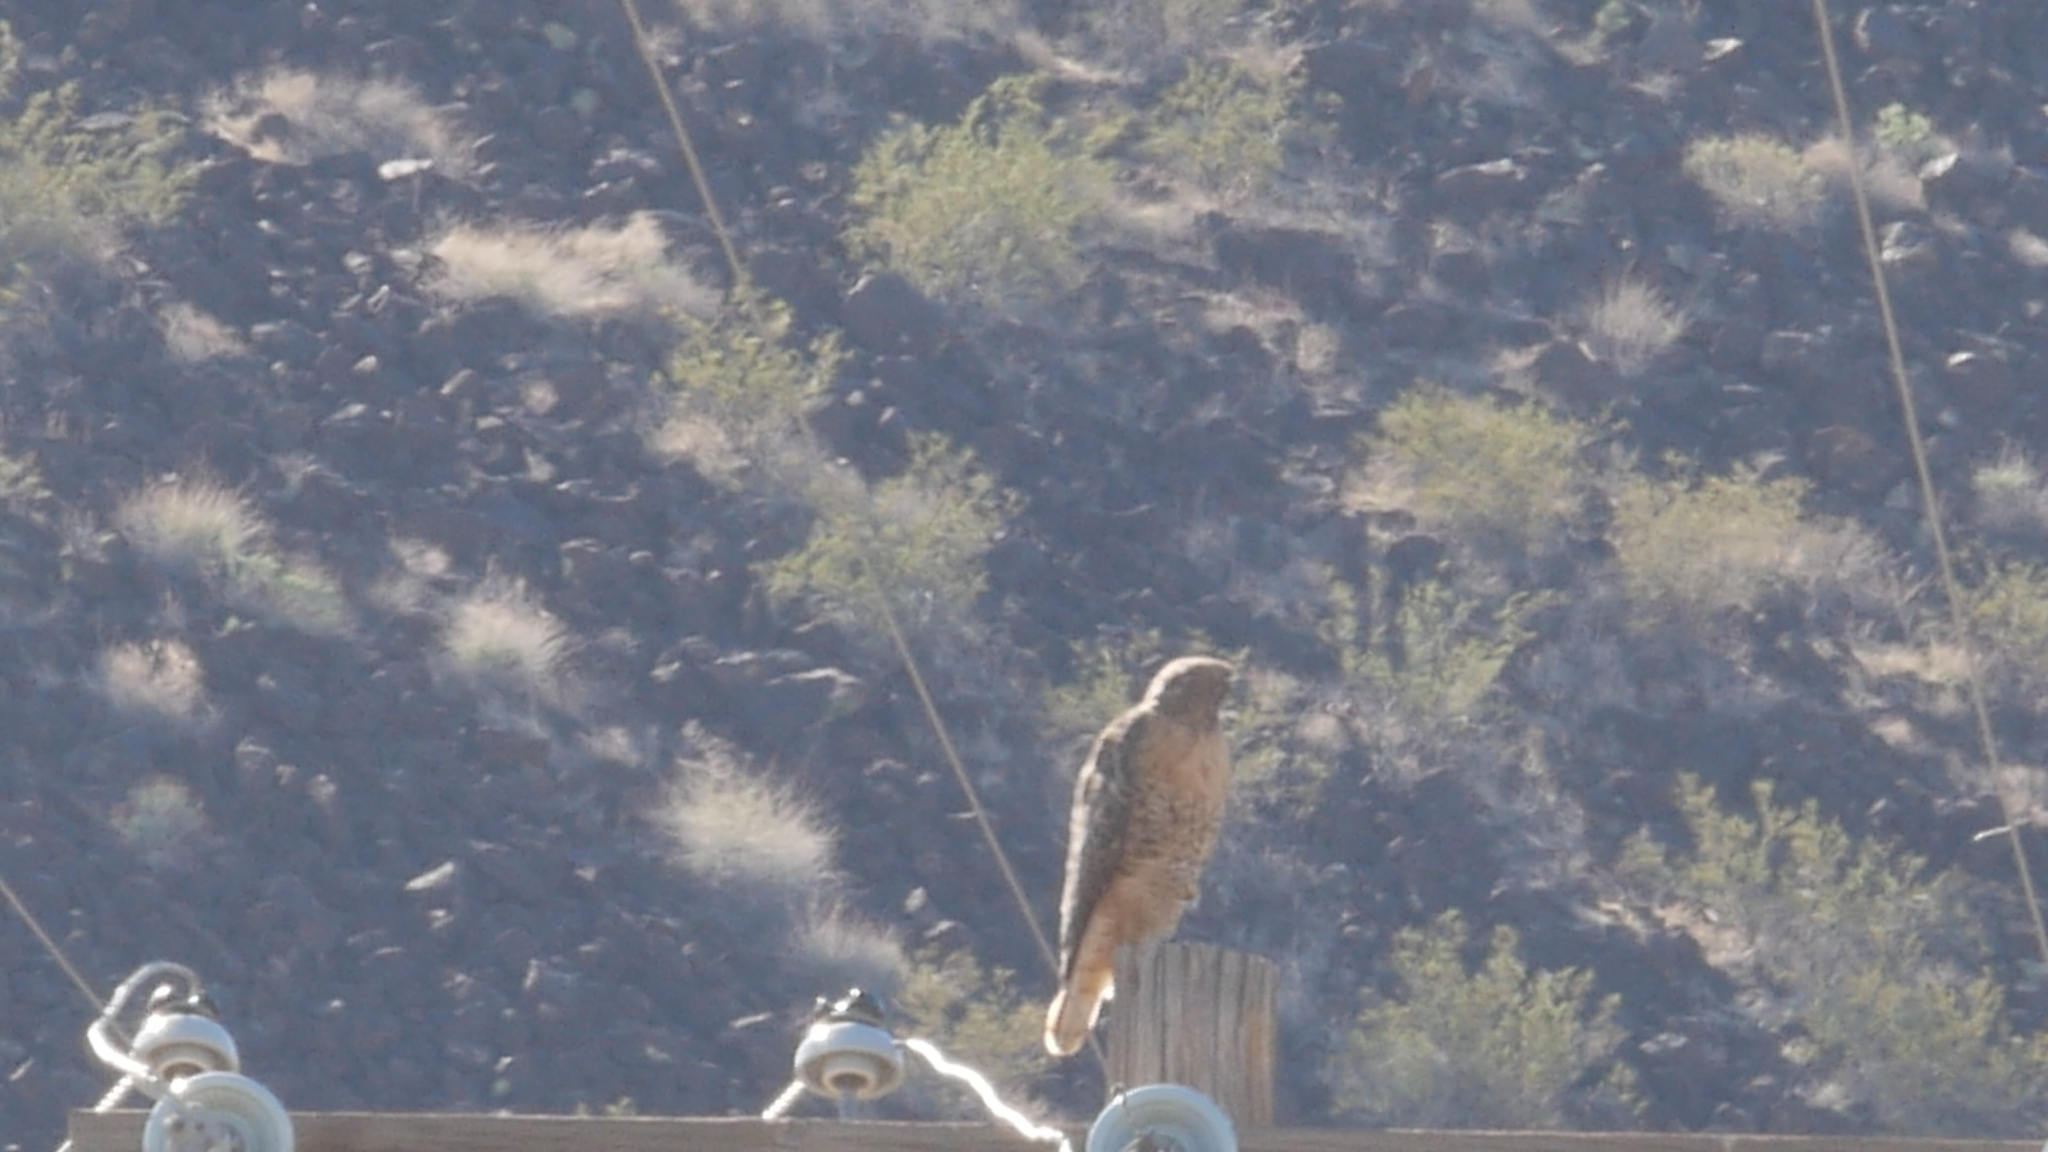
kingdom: Animalia
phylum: Chordata
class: Aves
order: Accipitriformes
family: Accipitridae
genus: Buteo
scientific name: Buteo jamaicensis
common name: Red-tailed hawk
